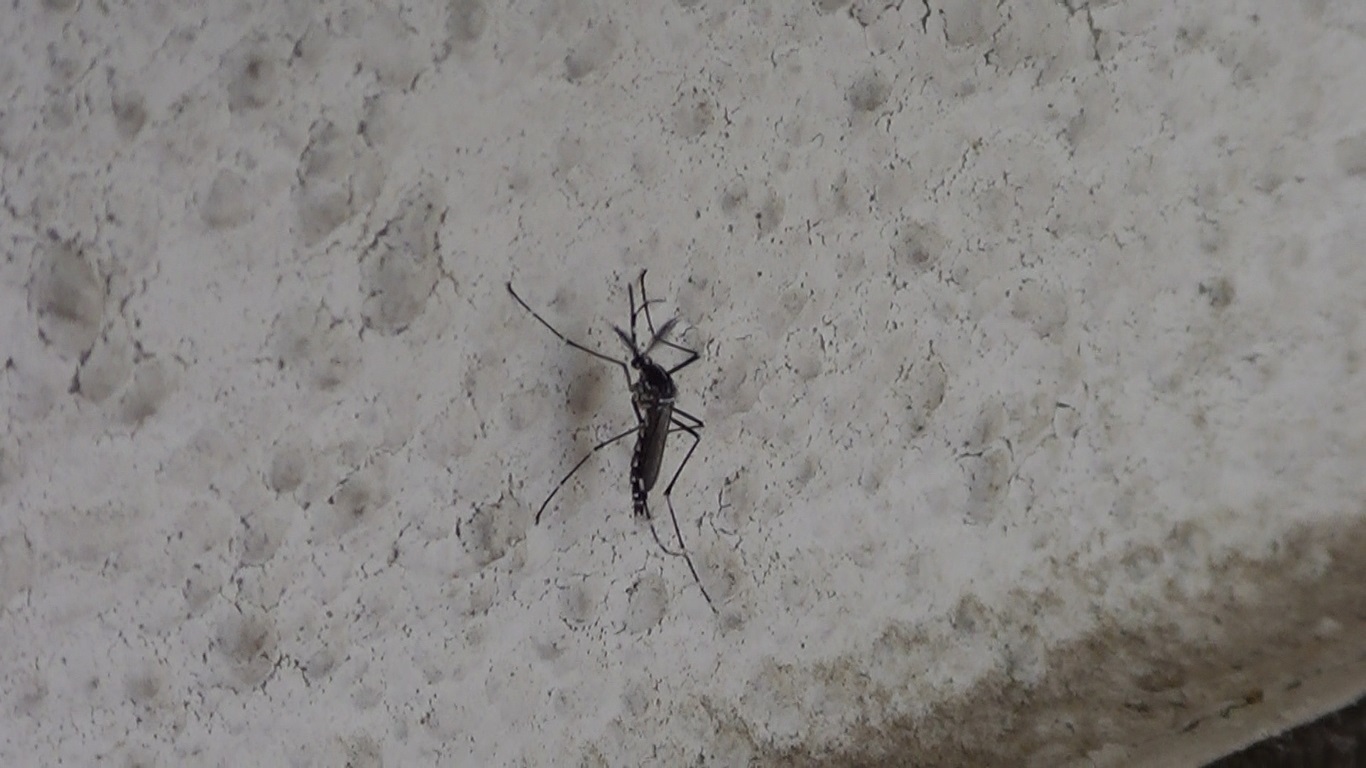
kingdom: Animalia
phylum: Arthropoda
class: Insecta
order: Diptera
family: Culicidae
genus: Aedes
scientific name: Aedes albopictus
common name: Tiger mosquito
